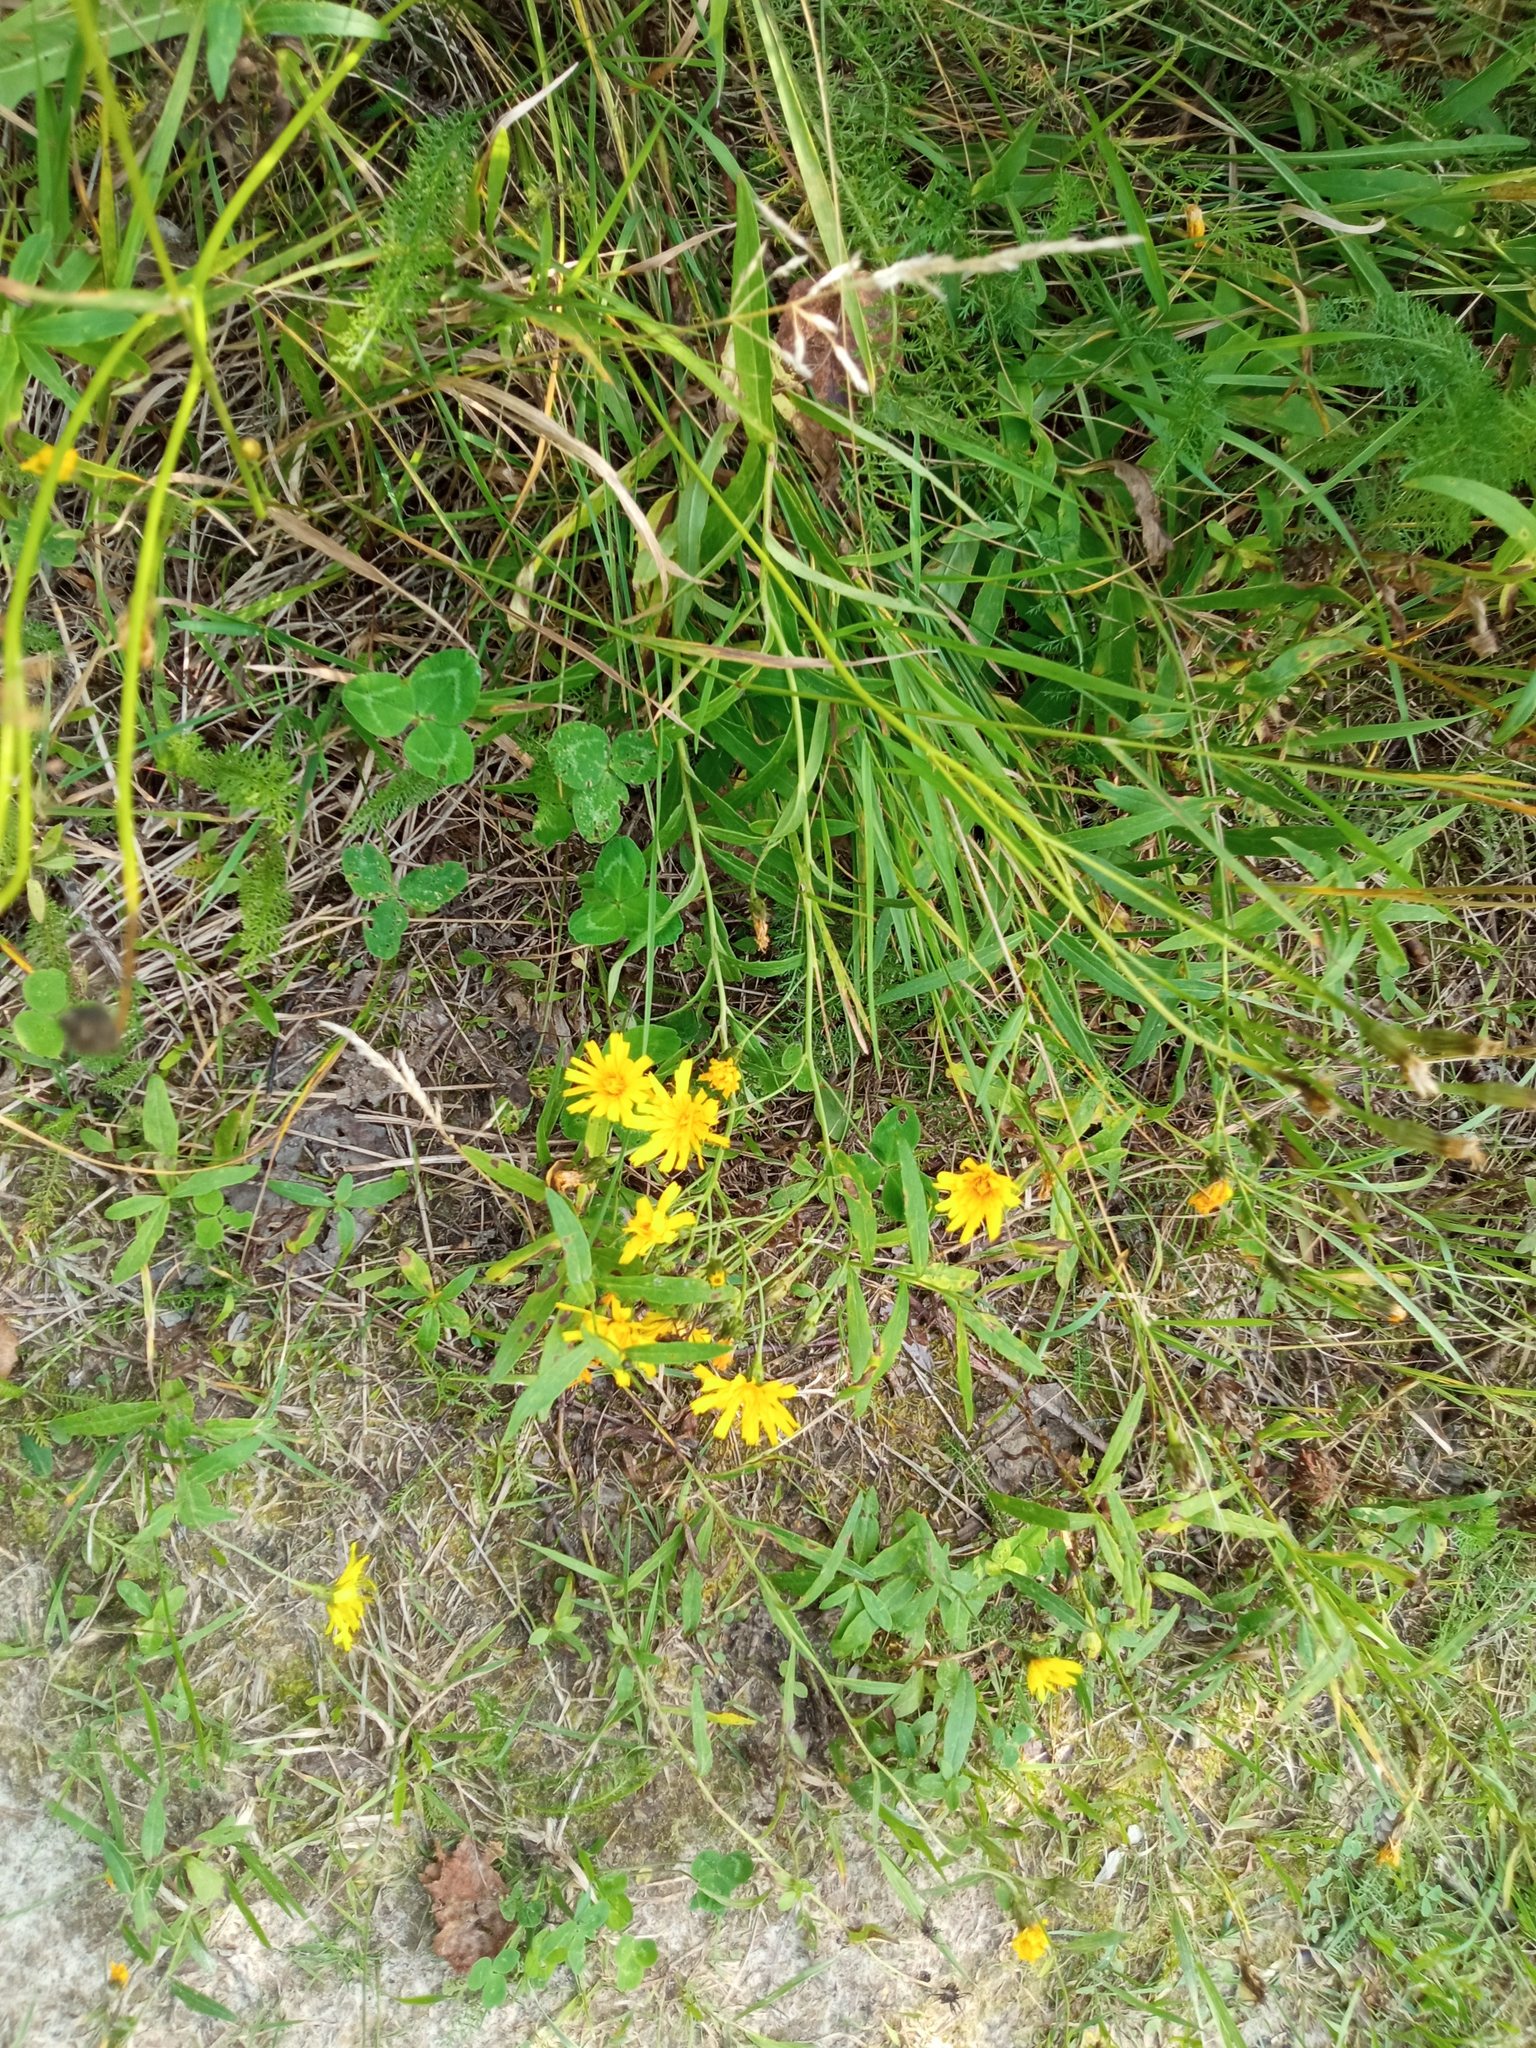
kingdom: Plantae
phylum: Tracheophyta
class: Magnoliopsida
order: Asterales
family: Asteraceae
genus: Hieracium
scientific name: Hieracium umbellatum
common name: Northern hawkweed
